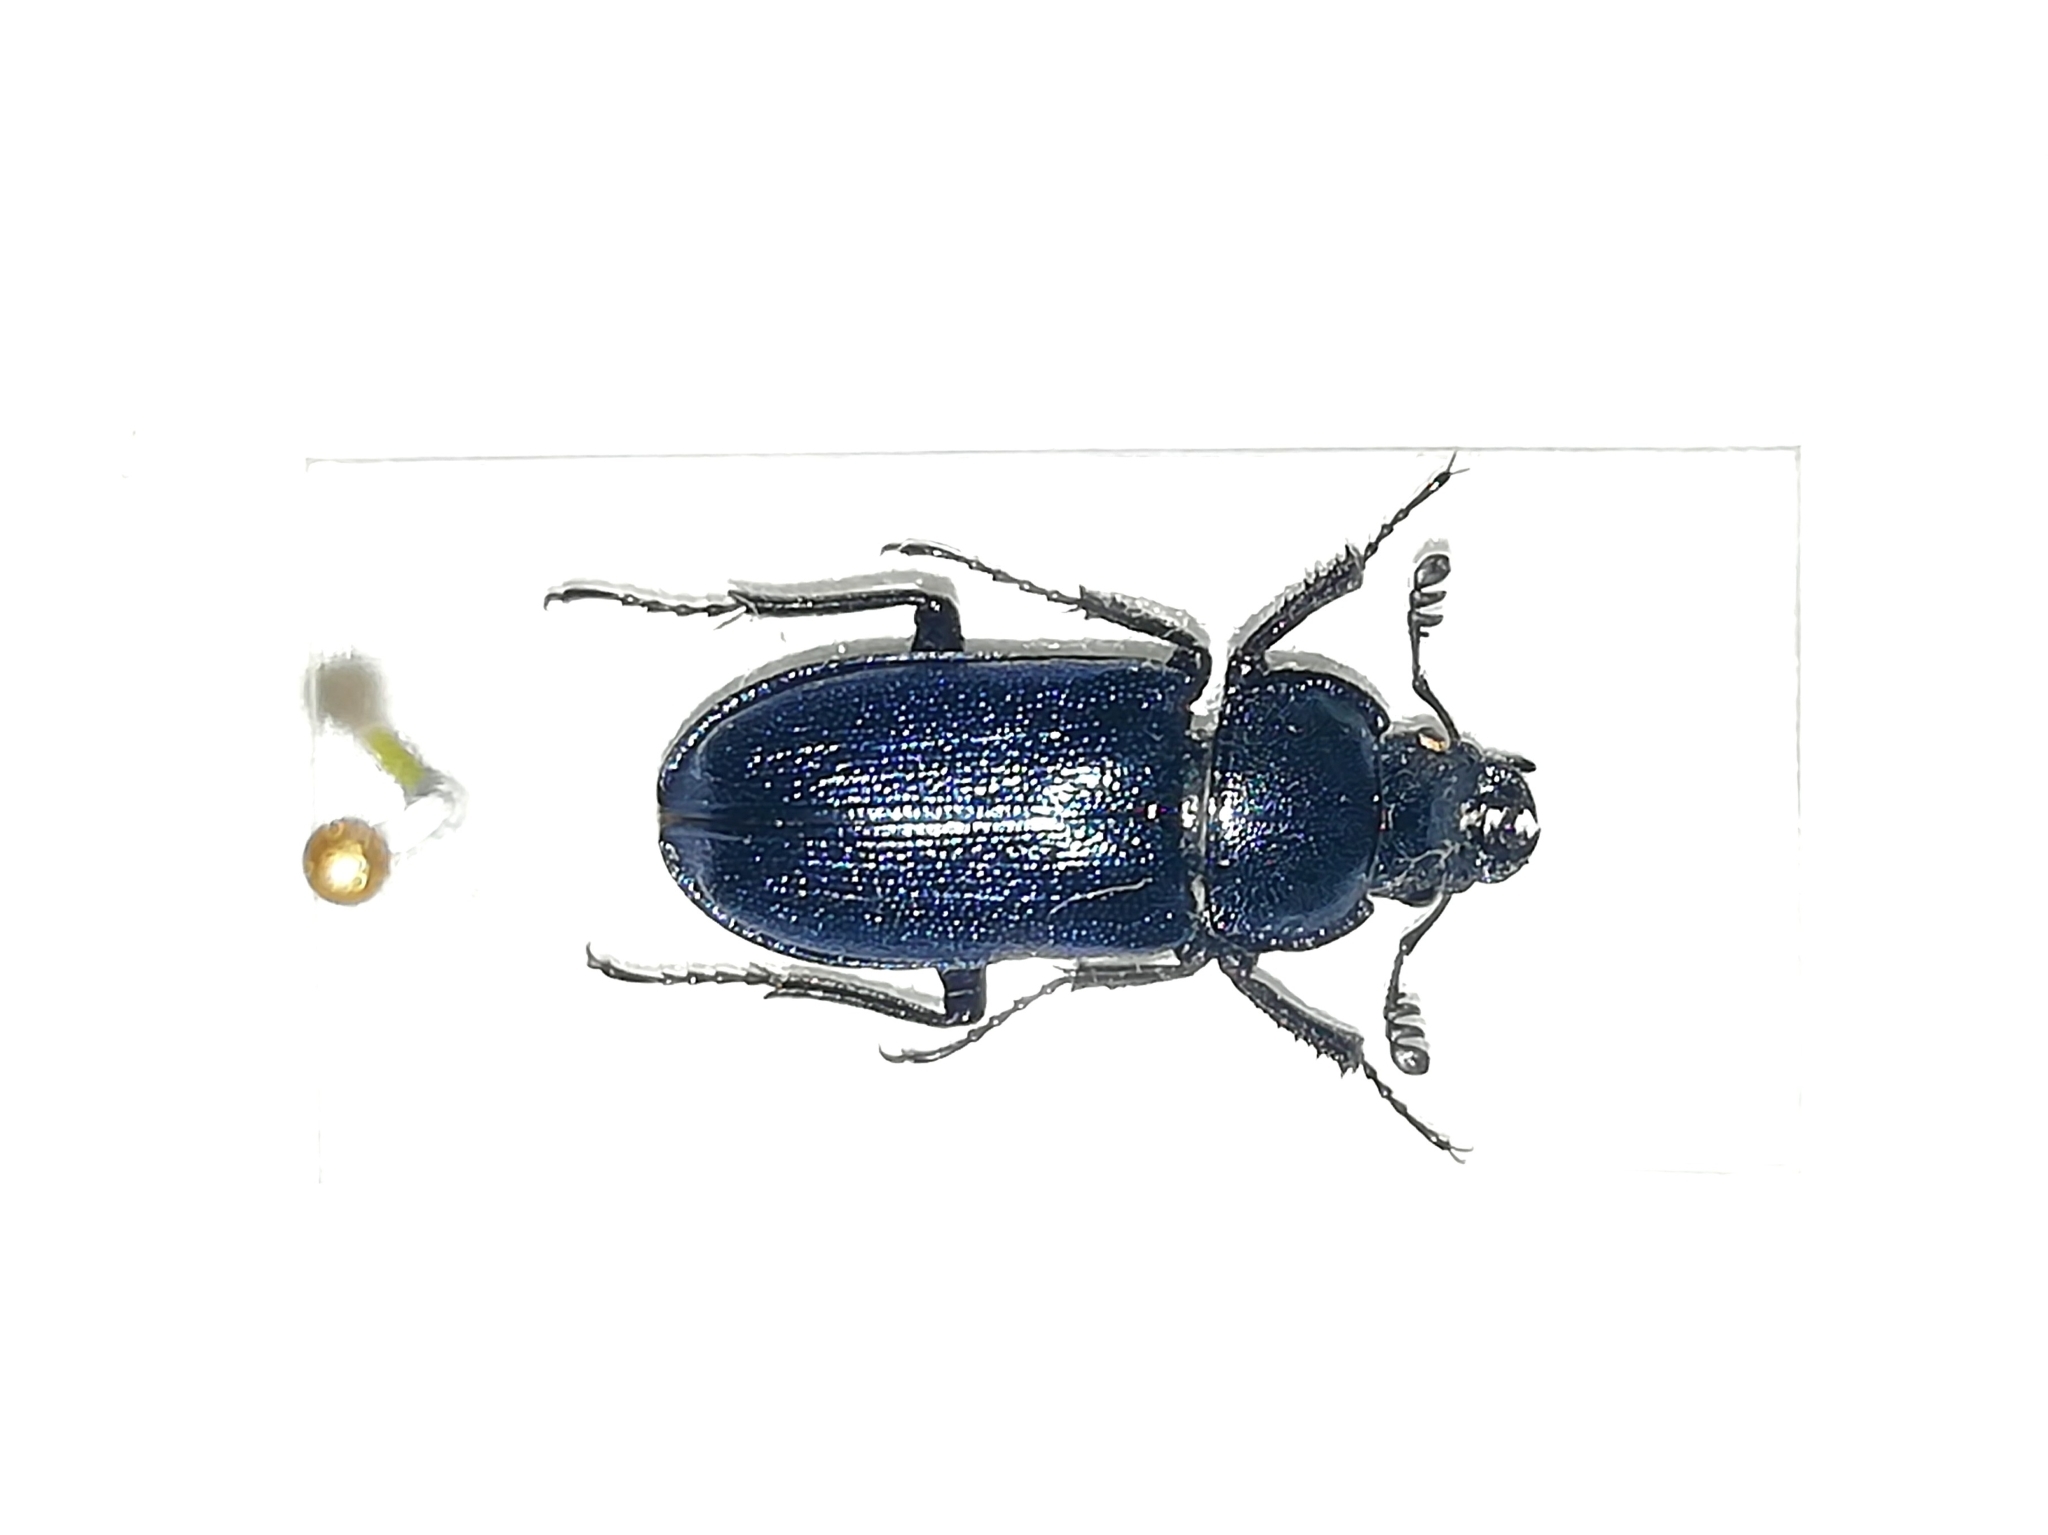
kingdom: Animalia
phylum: Arthropoda
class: Insecta
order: Coleoptera
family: Lucanidae
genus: Platycerus
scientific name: Platycerus caprea
